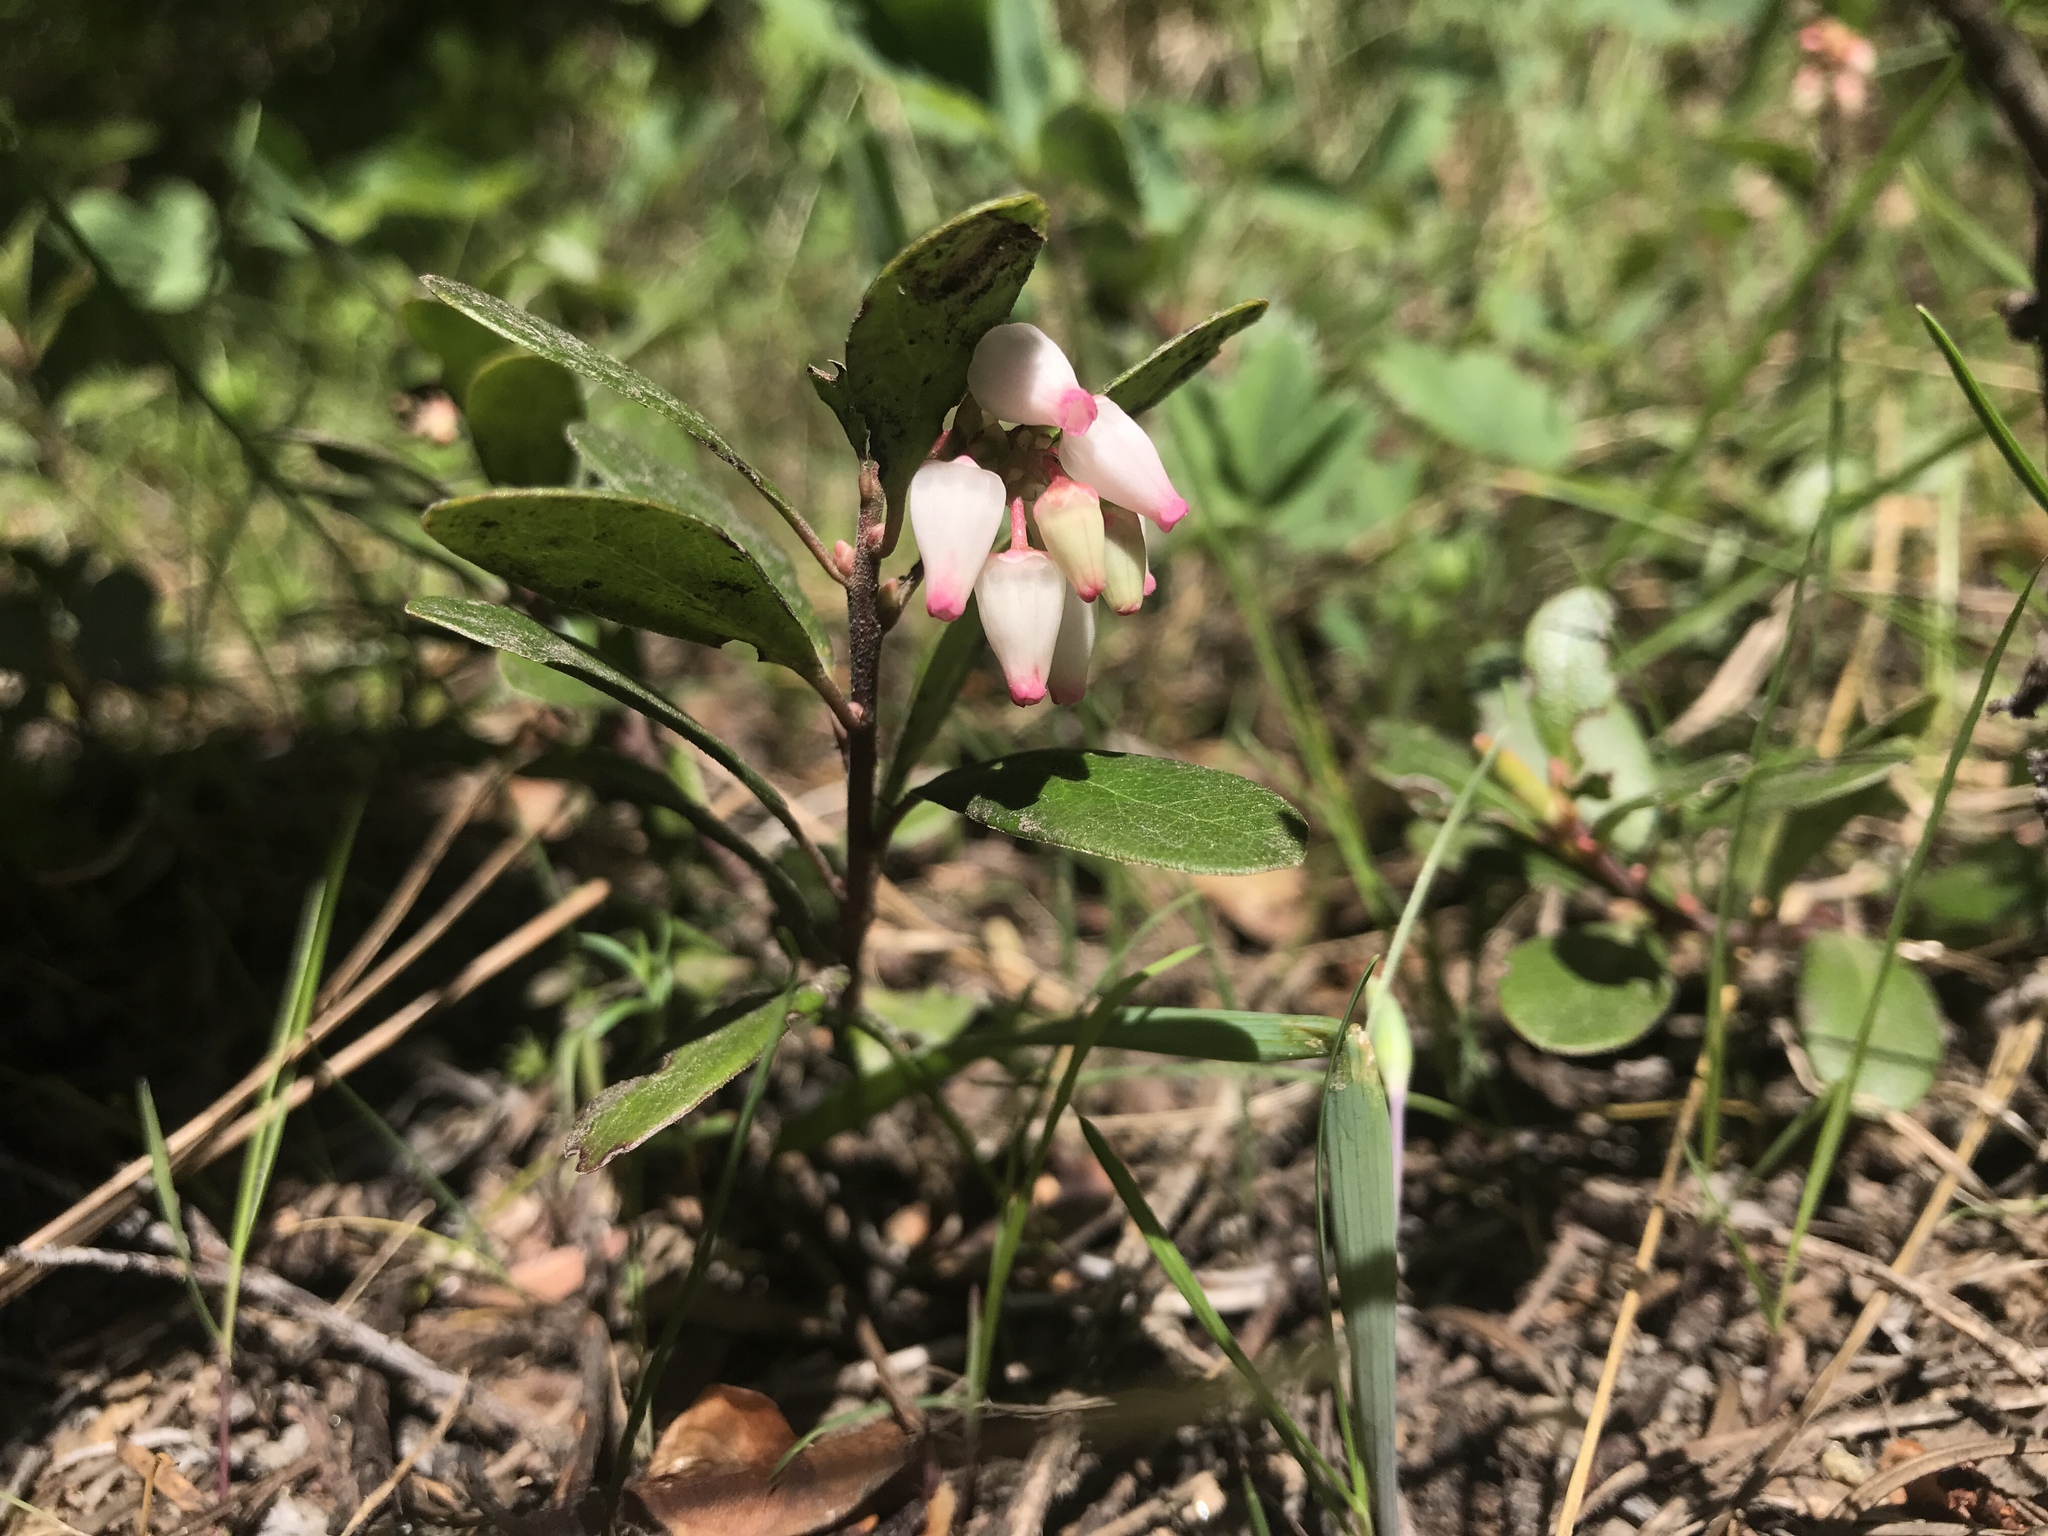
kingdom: Plantae
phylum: Tracheophyta
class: Magnoliopsida
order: Ericales
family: Ericaceae
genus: Arctostaphylos
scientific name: Arctostaphylos uva-ursi
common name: Bearberry
